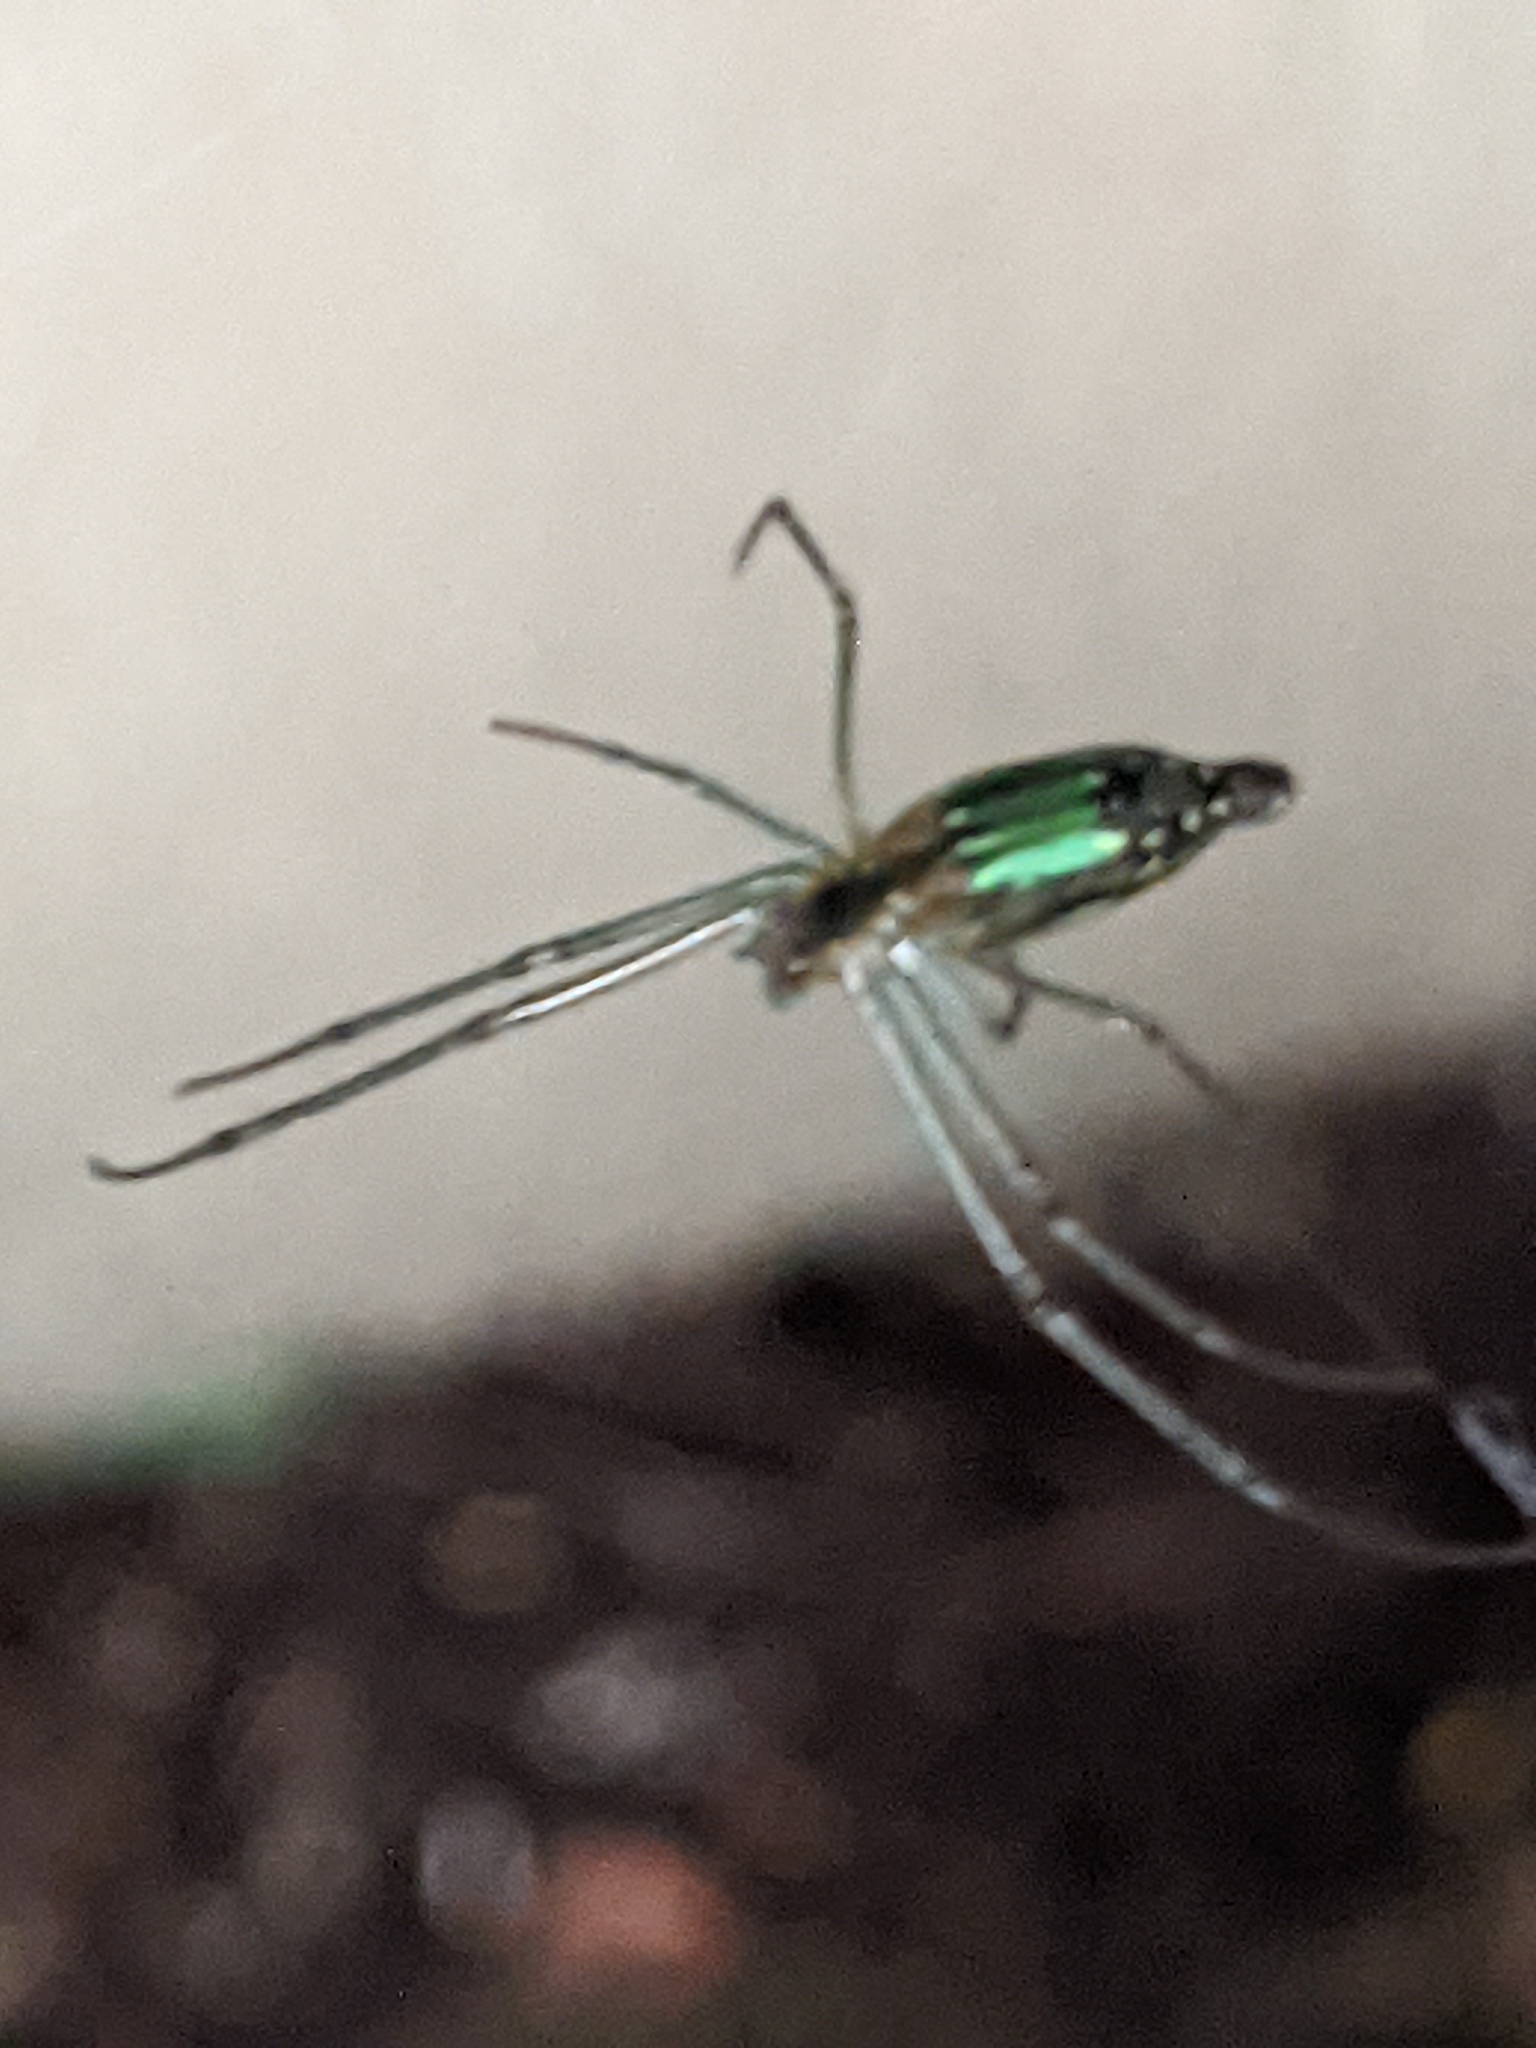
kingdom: Animalia
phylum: Arthropoda
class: Arachnida
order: Araneae
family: Tetragnathidae
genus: Leucauge
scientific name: Leucauge decorata
